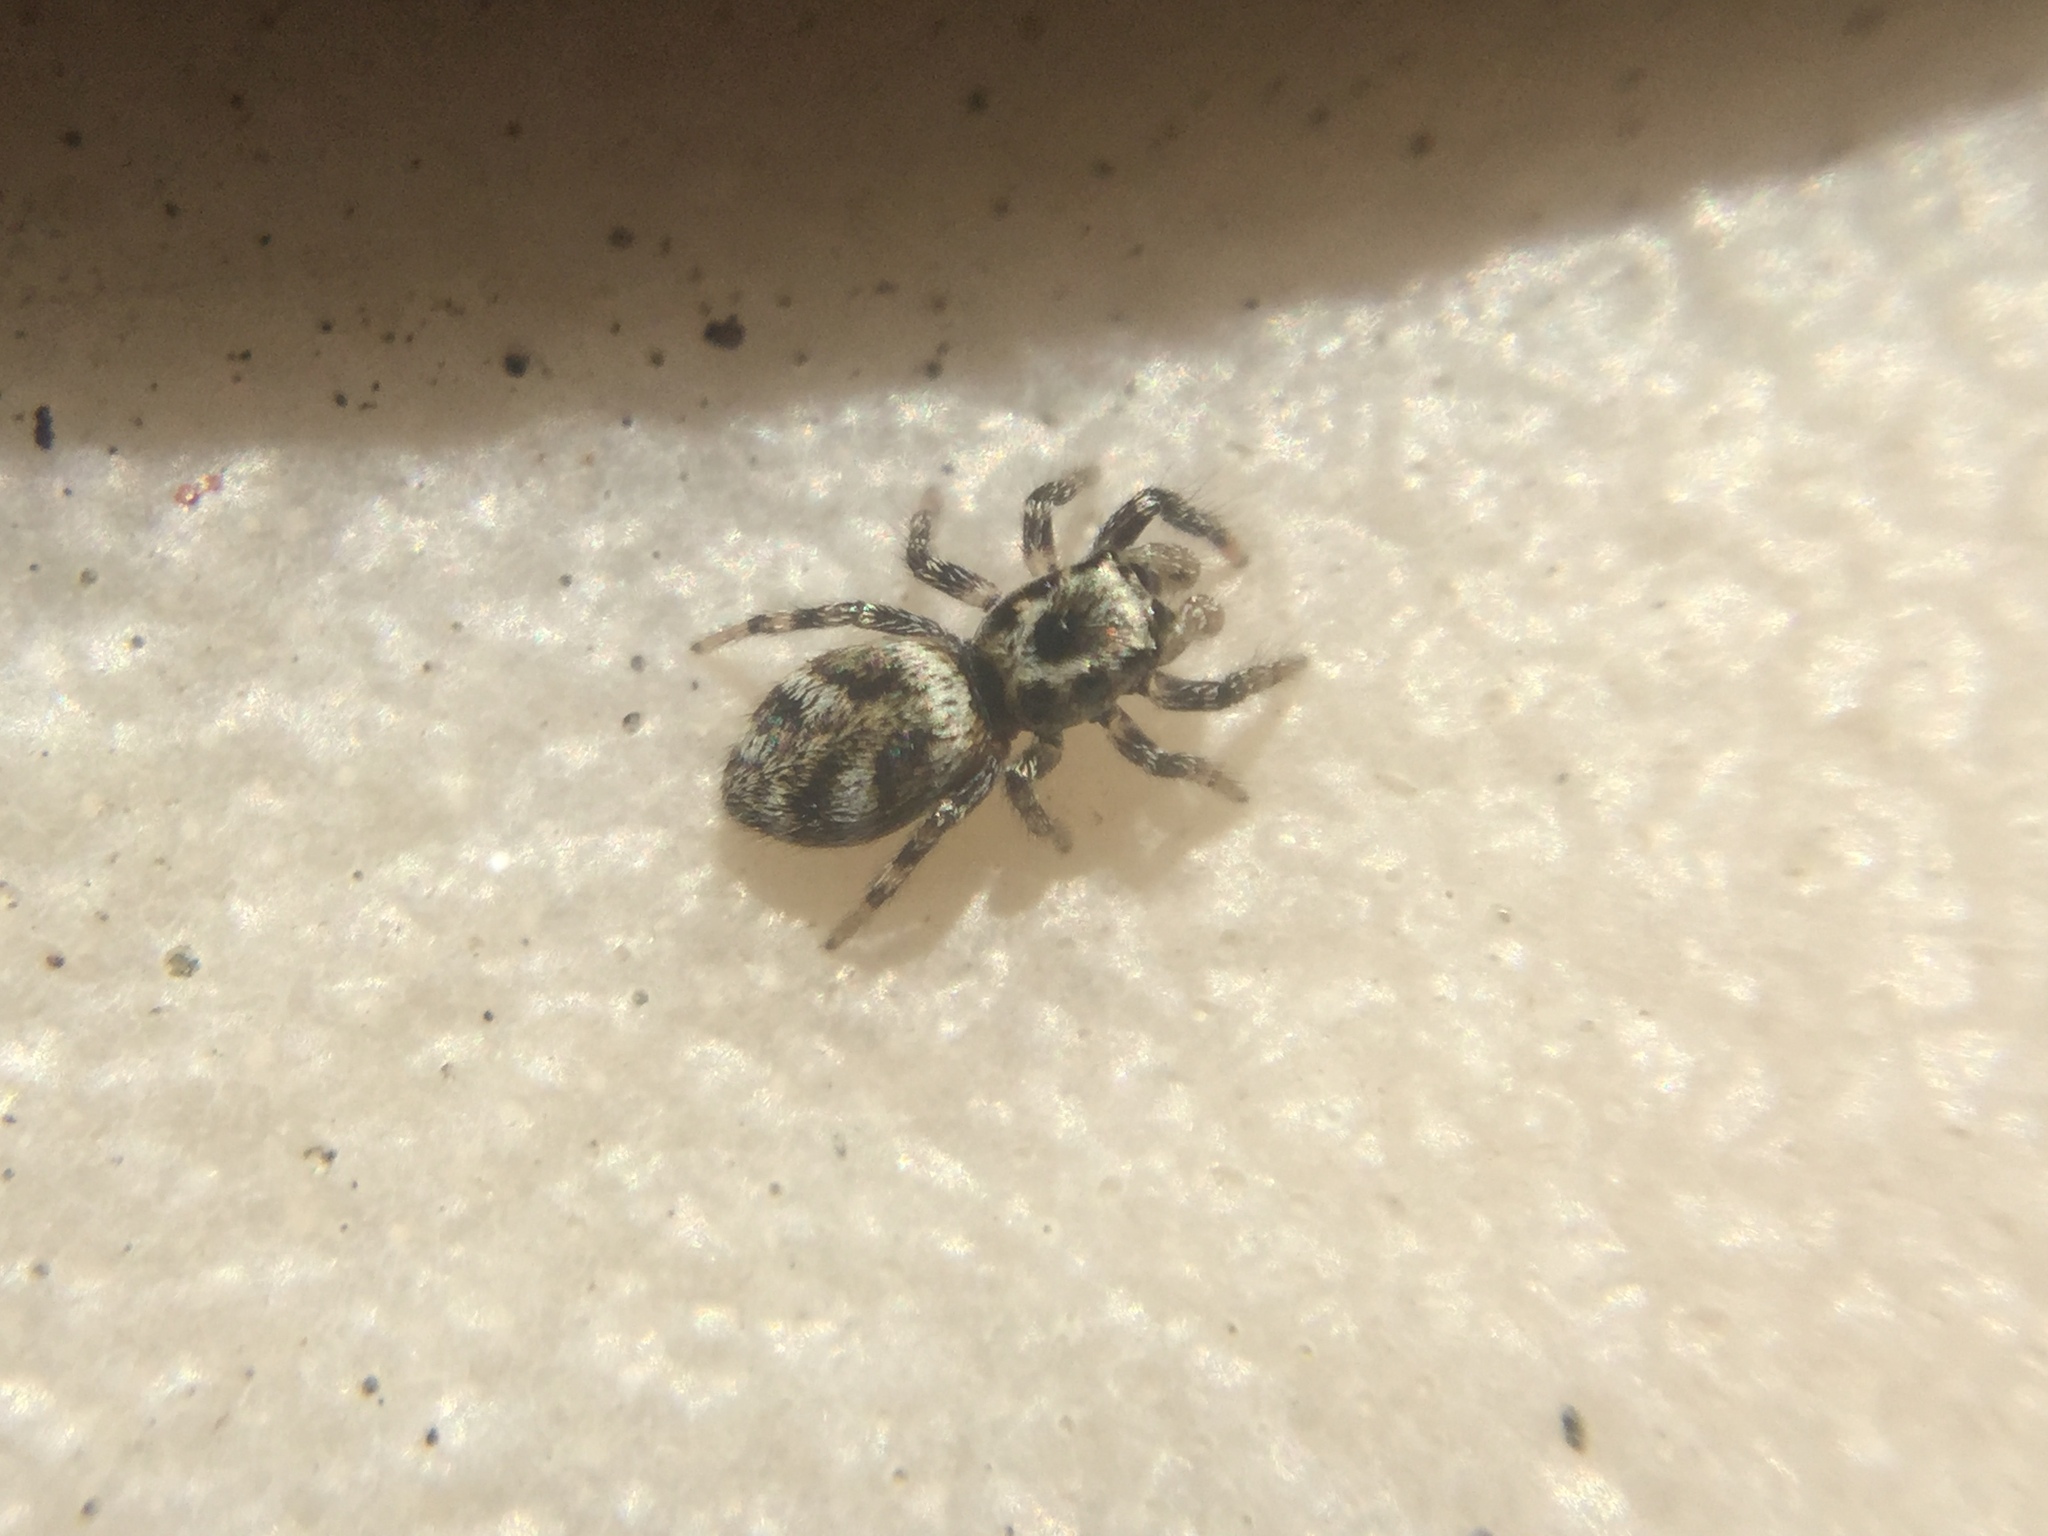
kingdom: Animalia
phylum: Arthropoda
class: Arachnida
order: Araneae
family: Salticidae
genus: Salticus
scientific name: Salticus scenicus
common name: Zebra jumper
